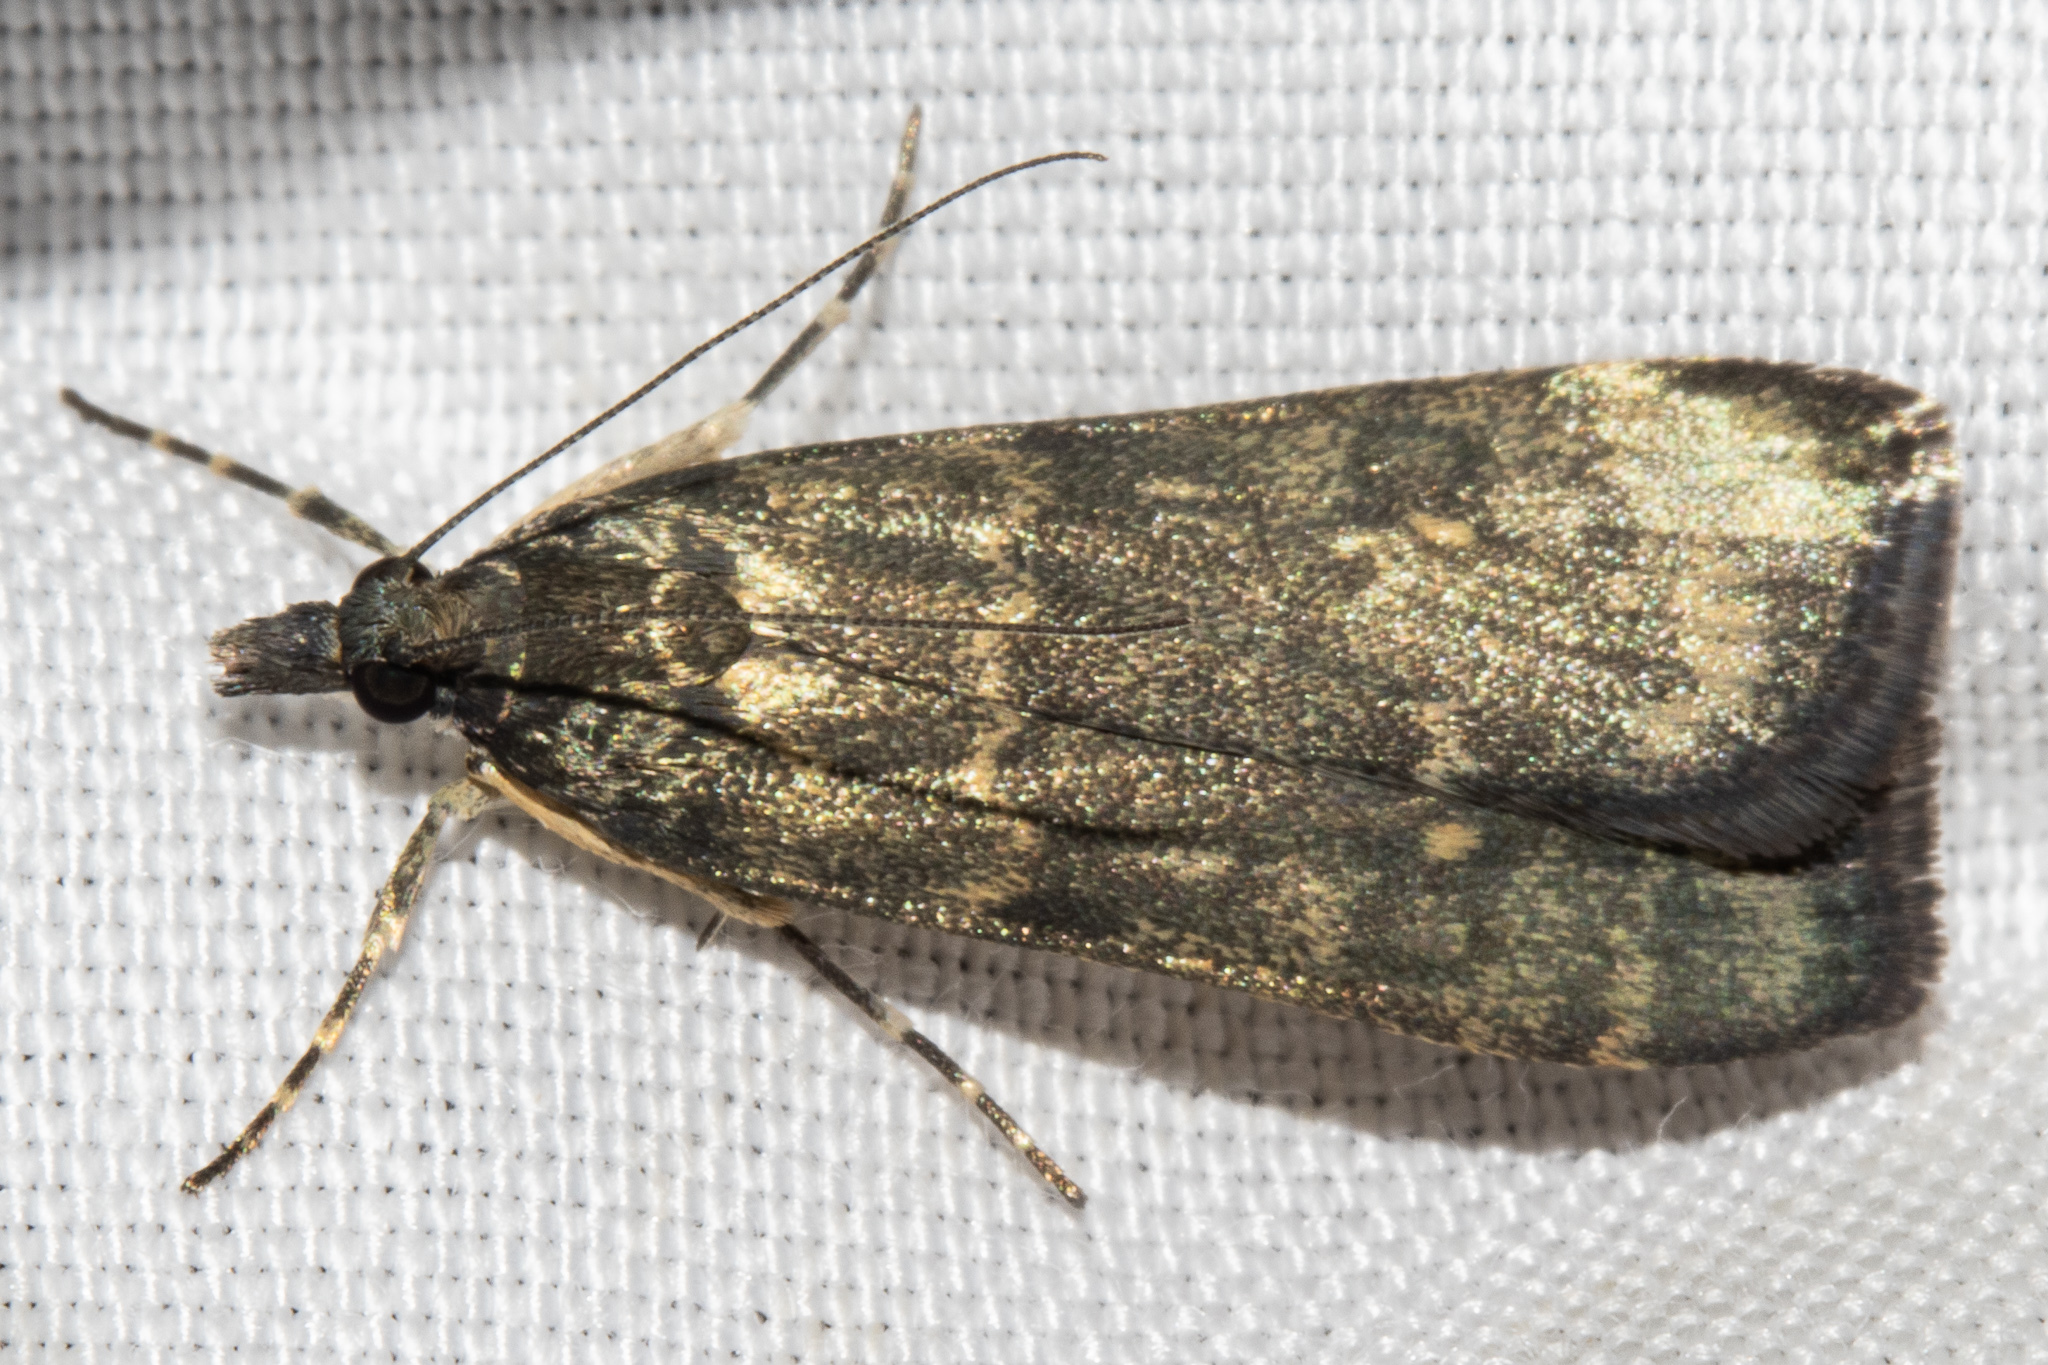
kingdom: Animalia
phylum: Arthropoda
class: Insecta
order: Lepidoptera
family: Crambidae
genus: Eudonia
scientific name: Eudonia cataxesta
